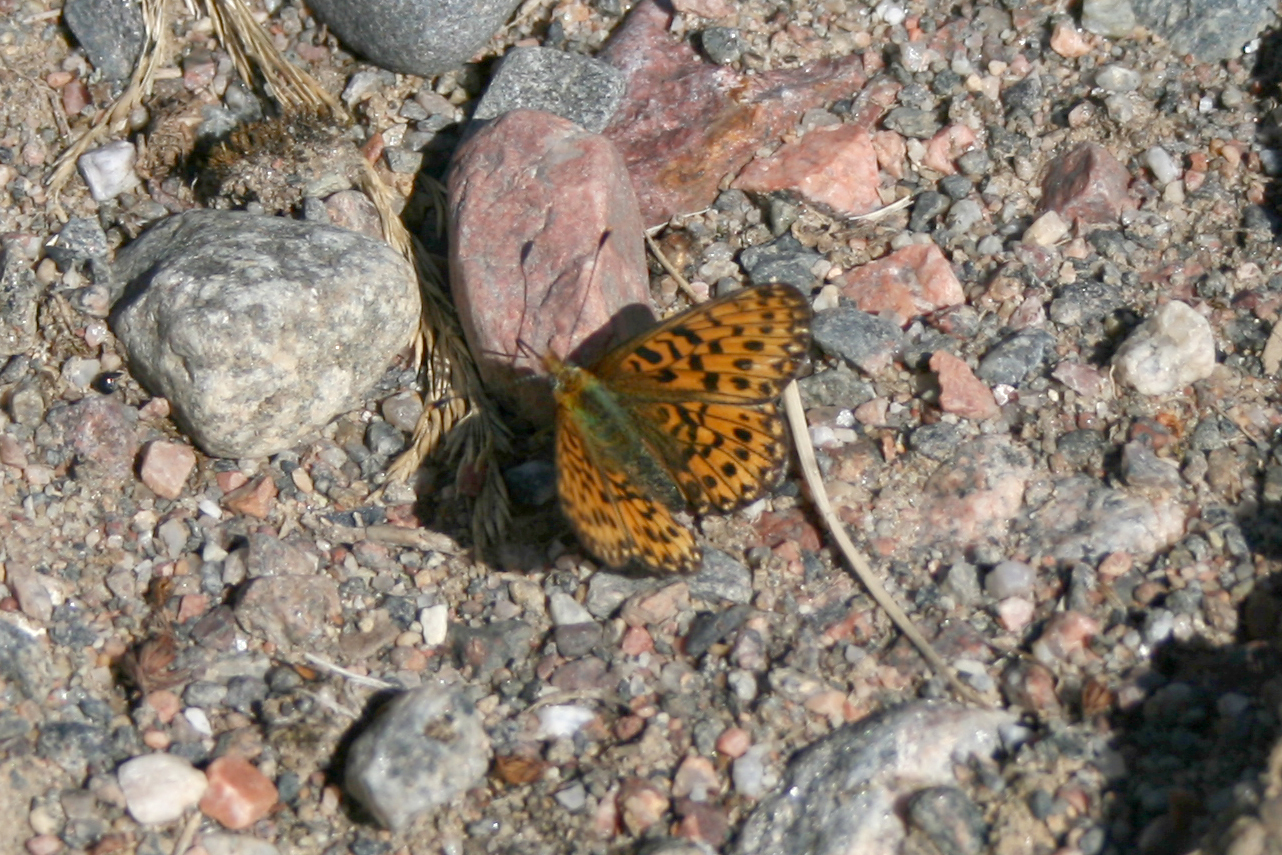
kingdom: Animalia
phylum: Arthropoda
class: Insecta
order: Lepidoptera
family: Nymphalidae
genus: Clossiana
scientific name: Clossiana euphrosyne
